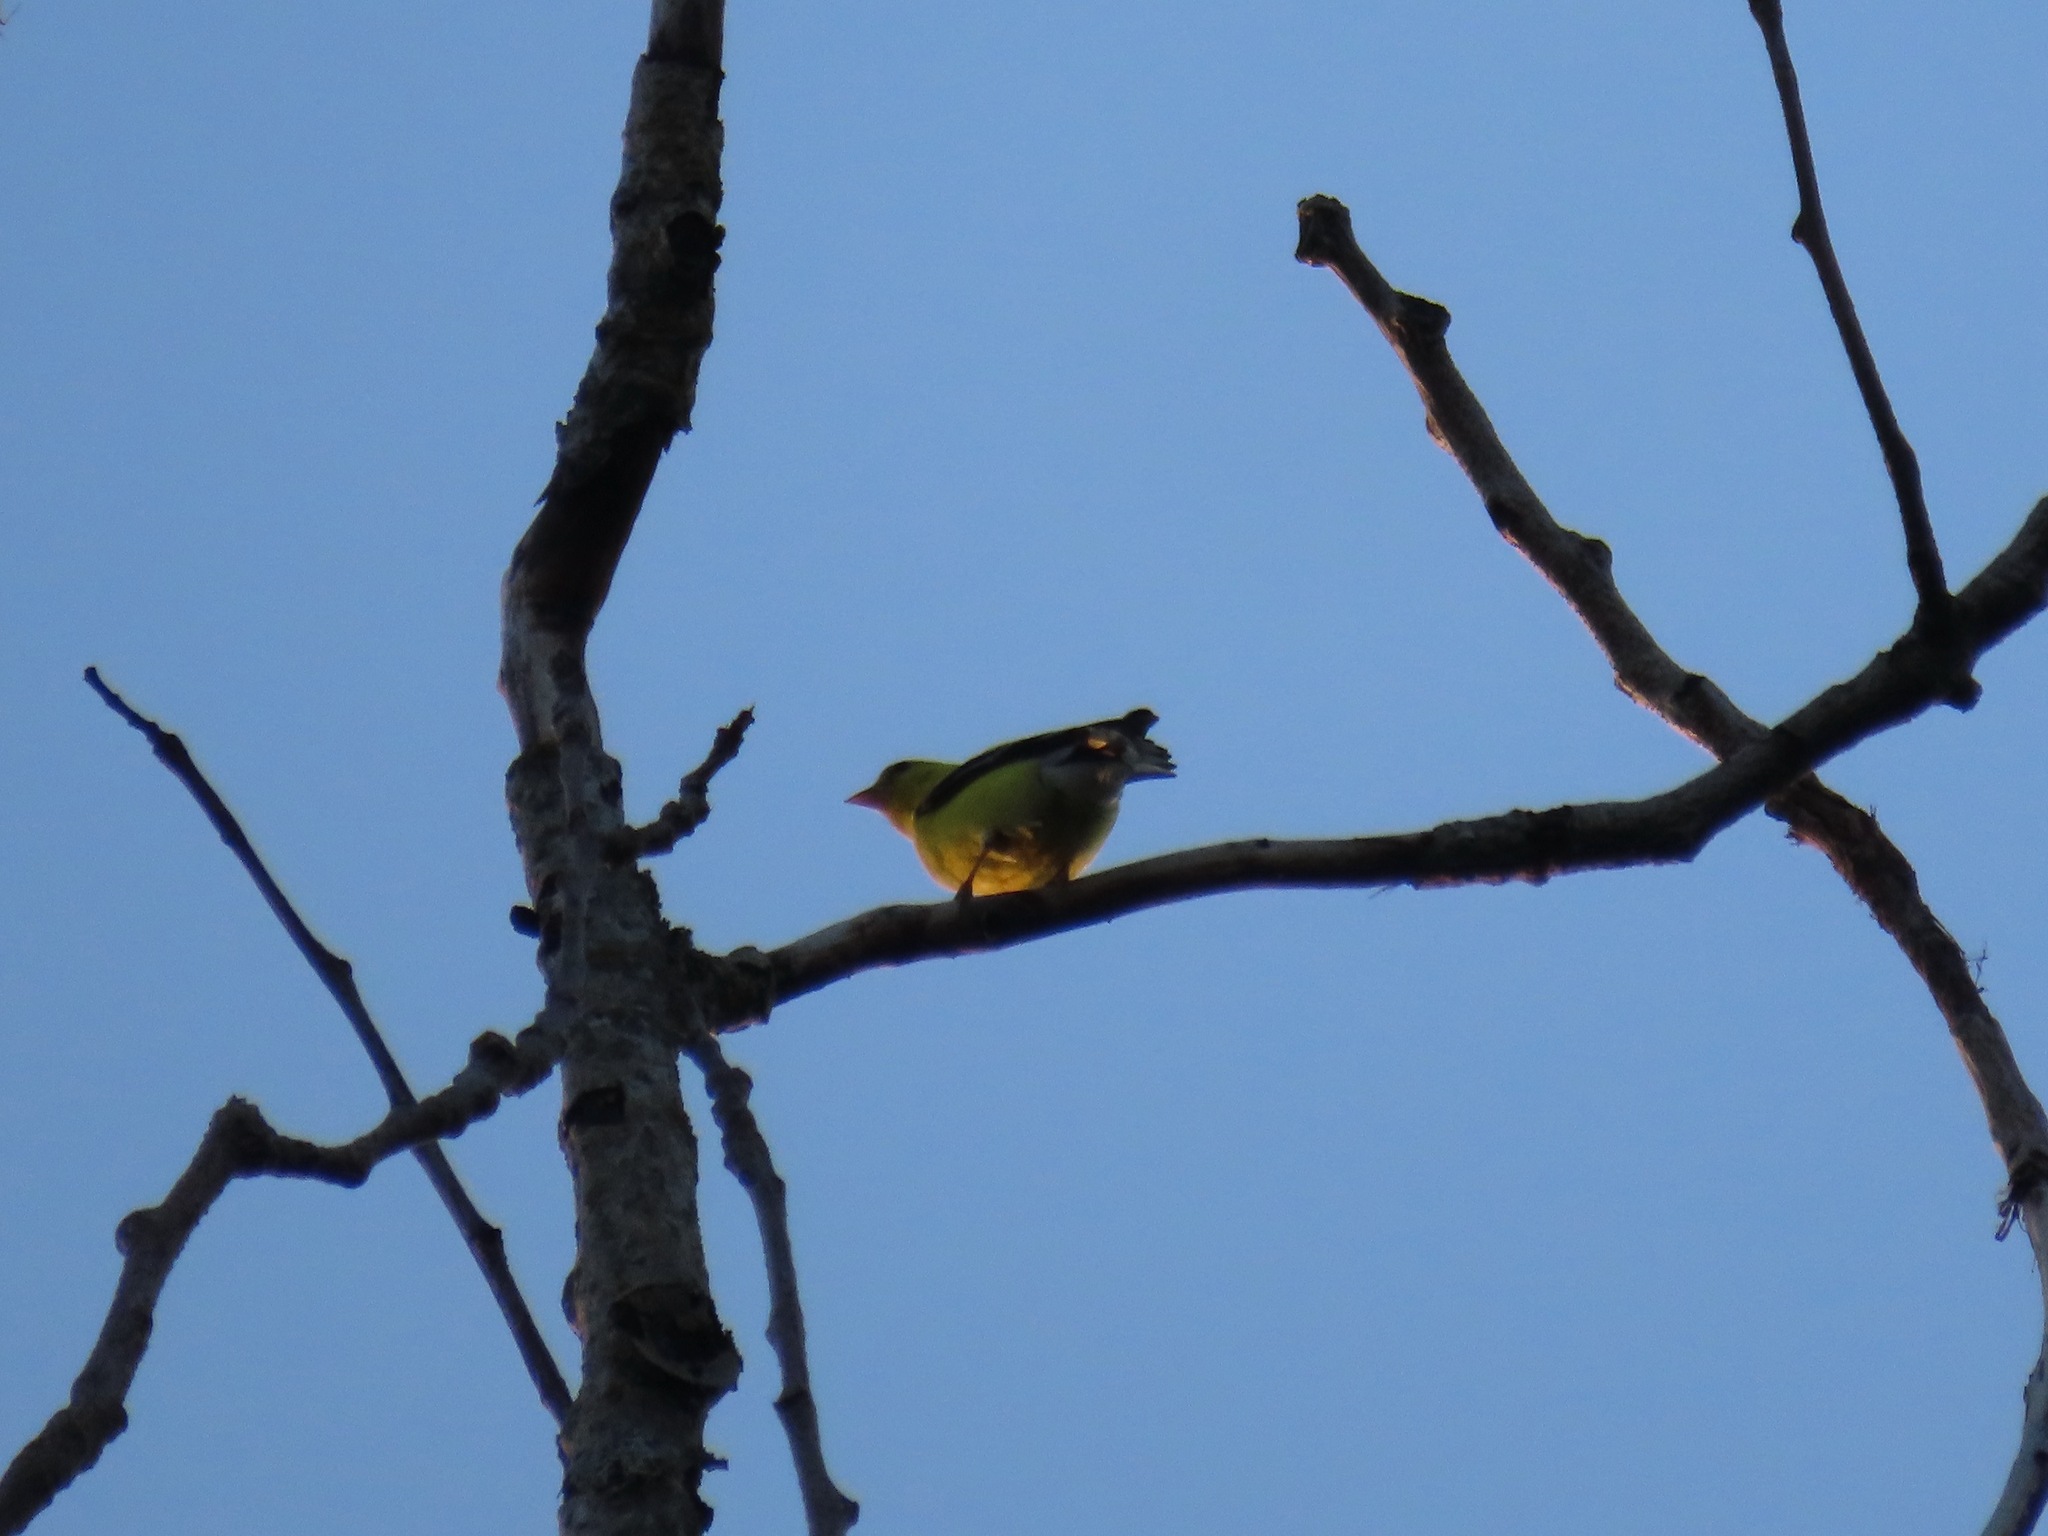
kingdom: Animalia
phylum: Chordata
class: Aves
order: Passeriformes
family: Fringillidae
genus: Spinus
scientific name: Spinus tristis
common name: American goldfinch
